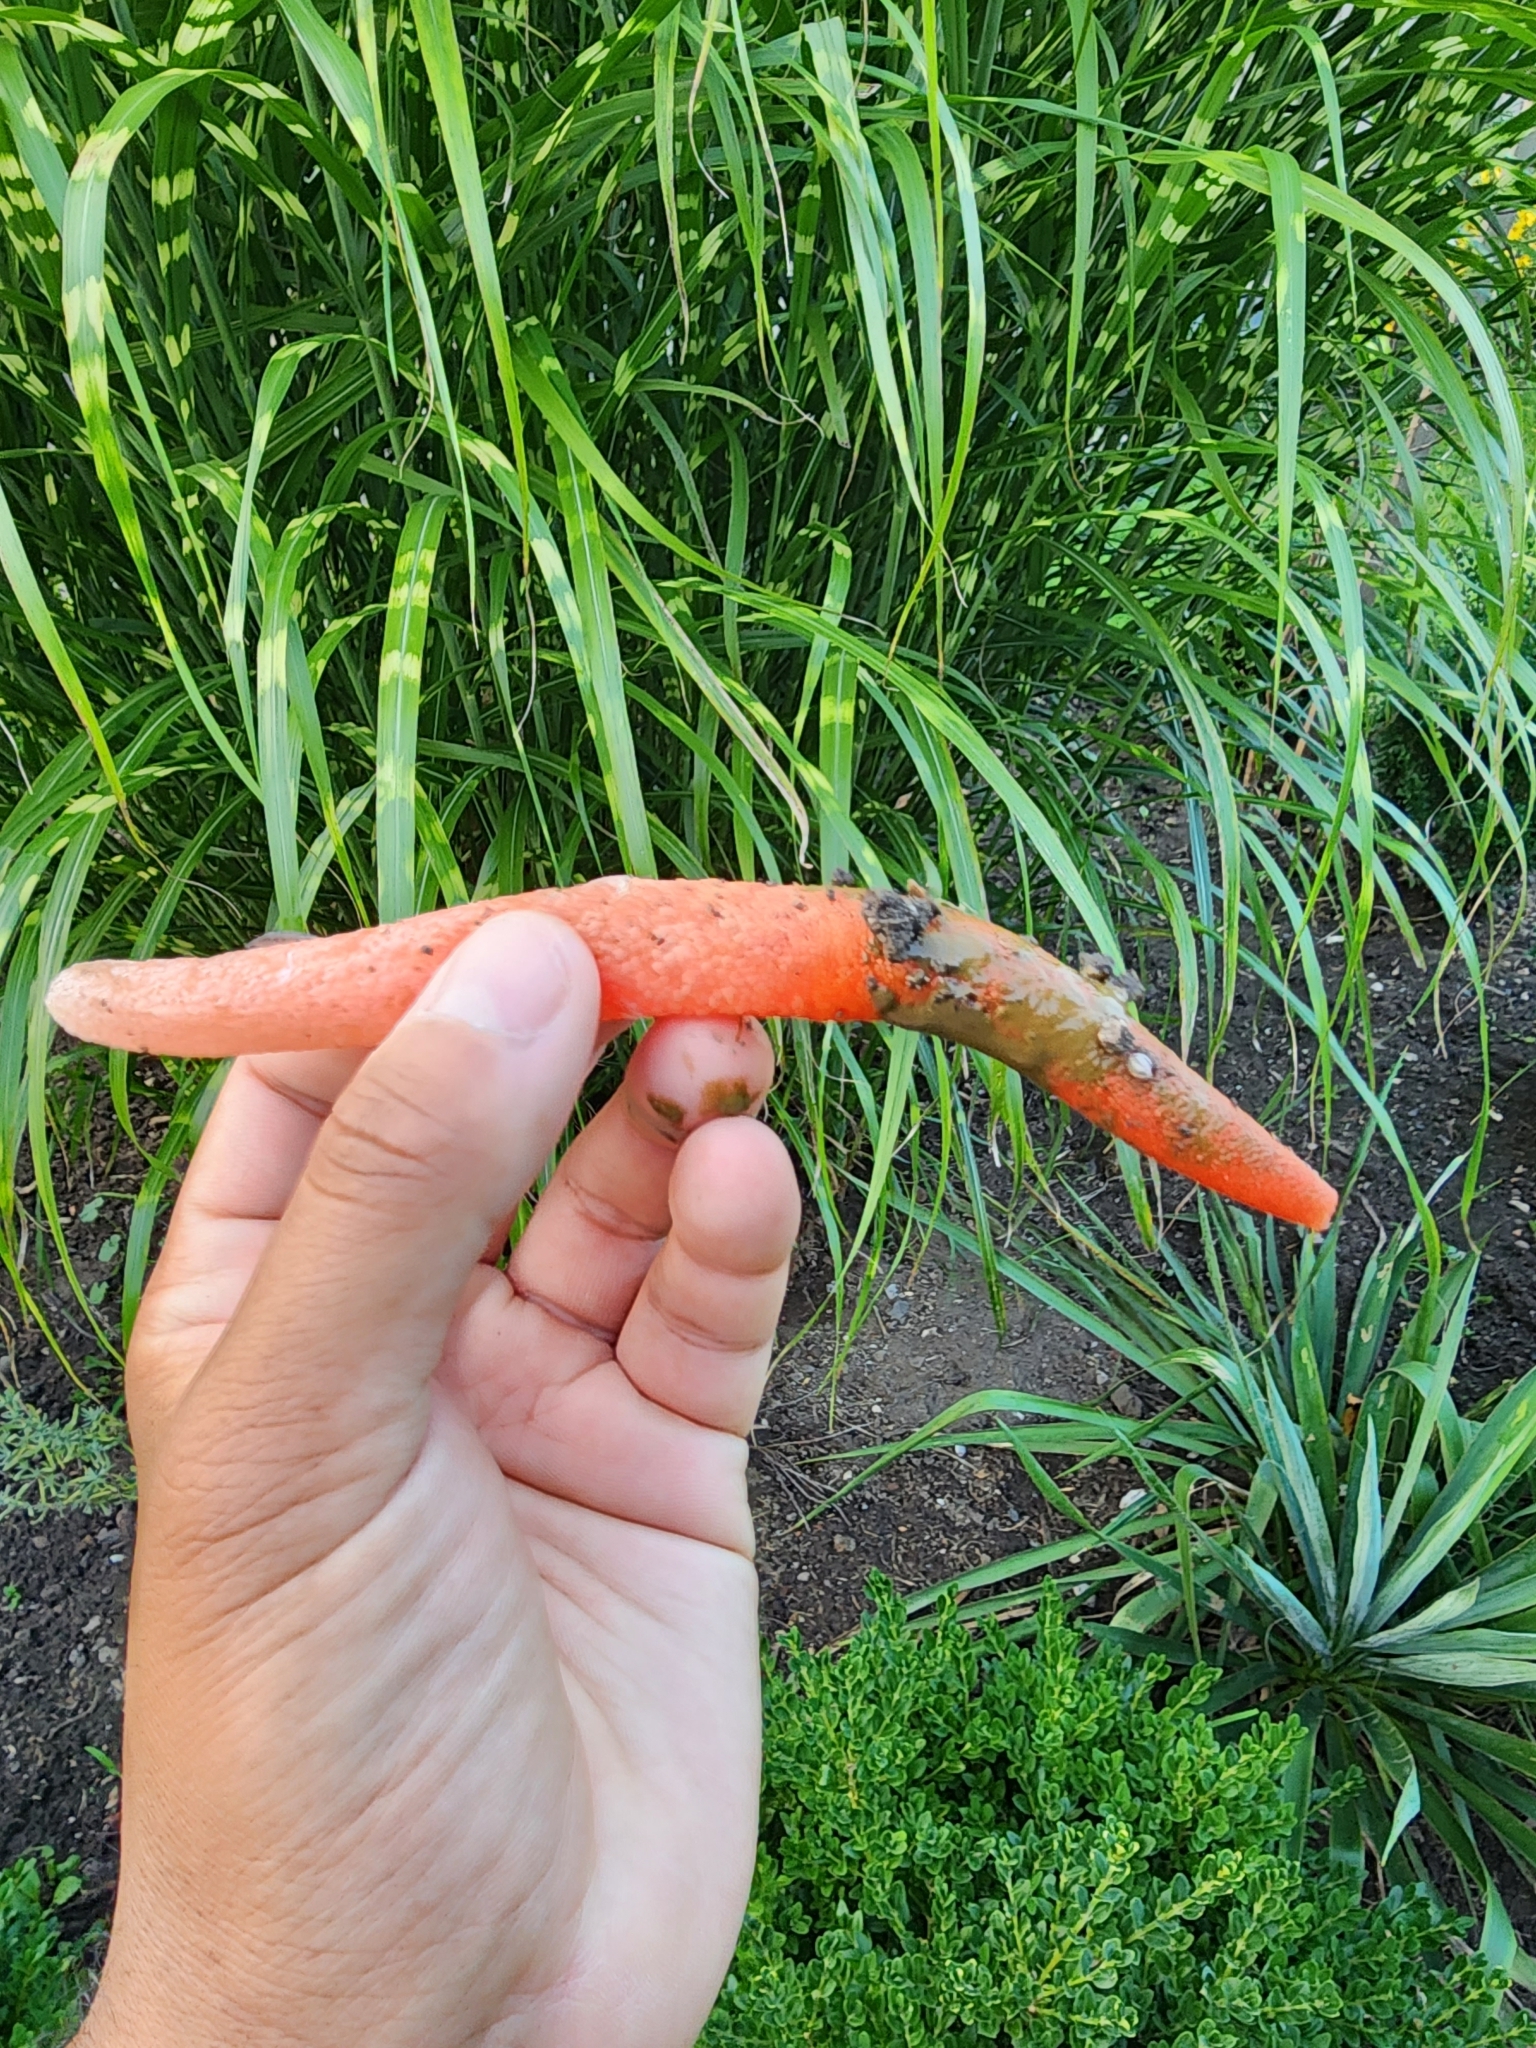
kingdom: Fungi
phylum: Basidiomycota
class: Agaricomycetes
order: Phallales
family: Phallaceae
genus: Mutinus
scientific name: Mutinus elegans
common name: Devil's dipstick
